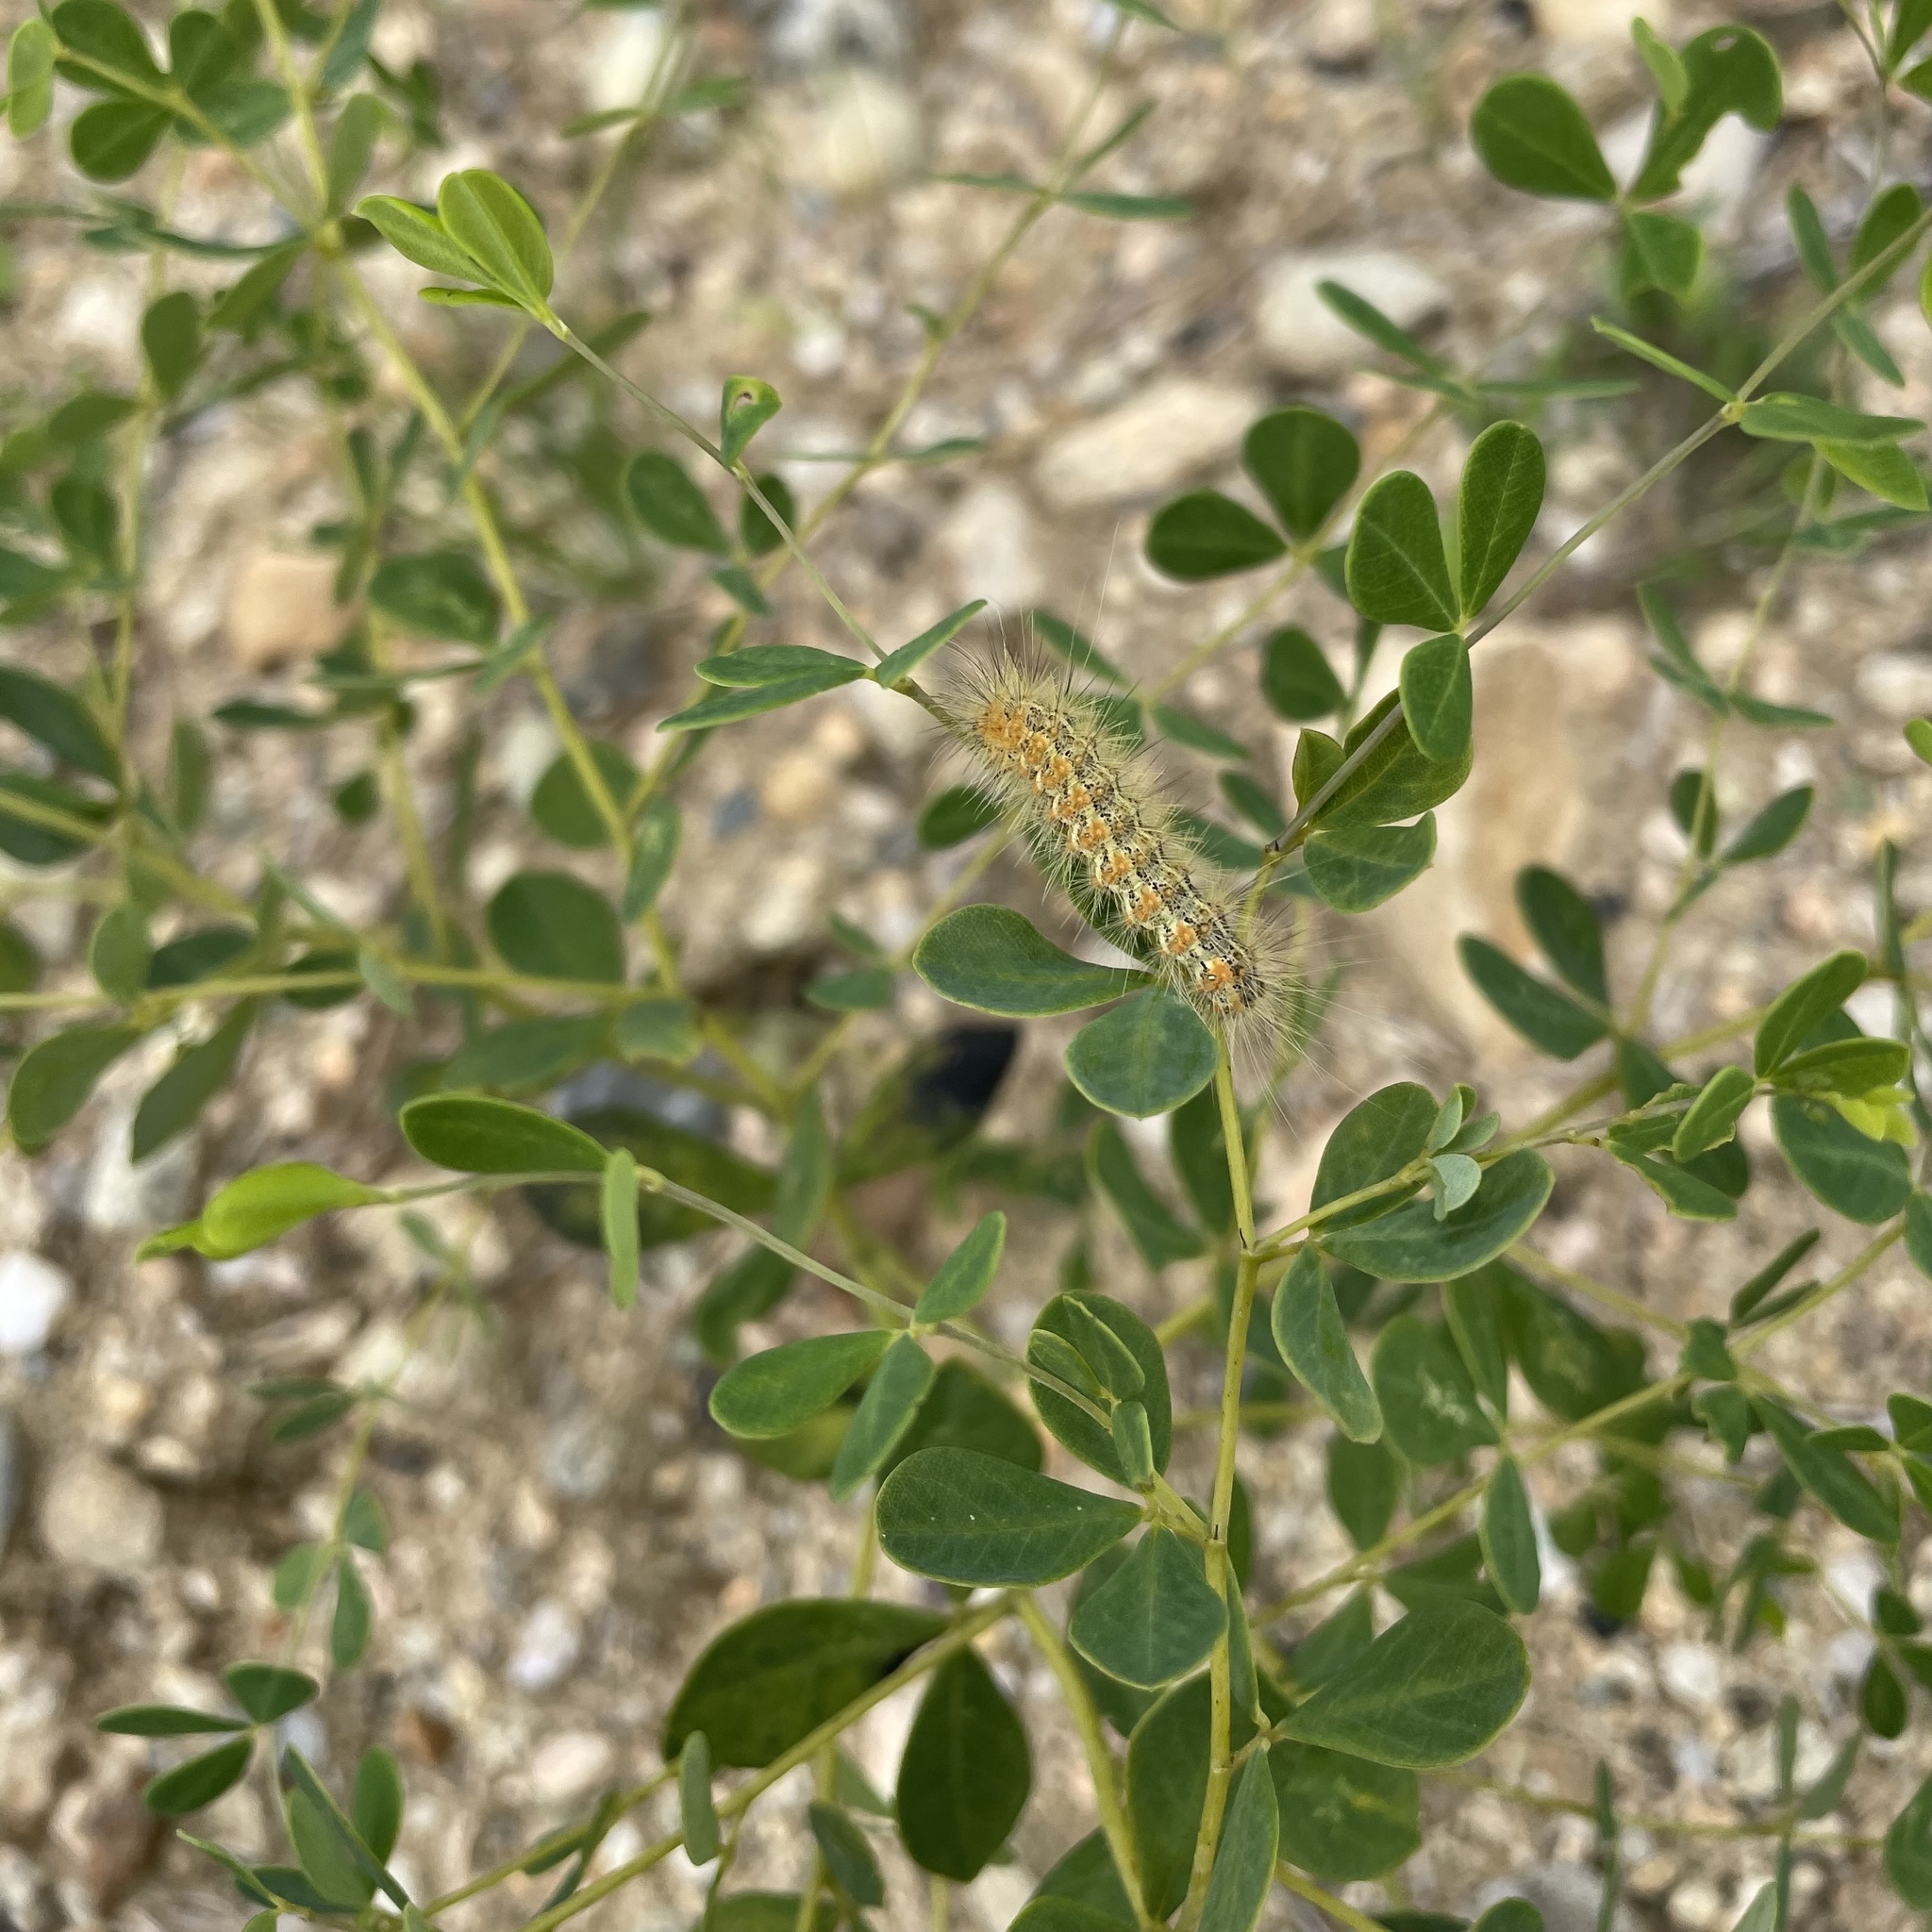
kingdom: Animalia
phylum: Arthropoda
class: Insecta
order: Lepidoptera
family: Erebidae
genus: Estigmene
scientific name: Estigmene acrea
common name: Salt marsh moth
